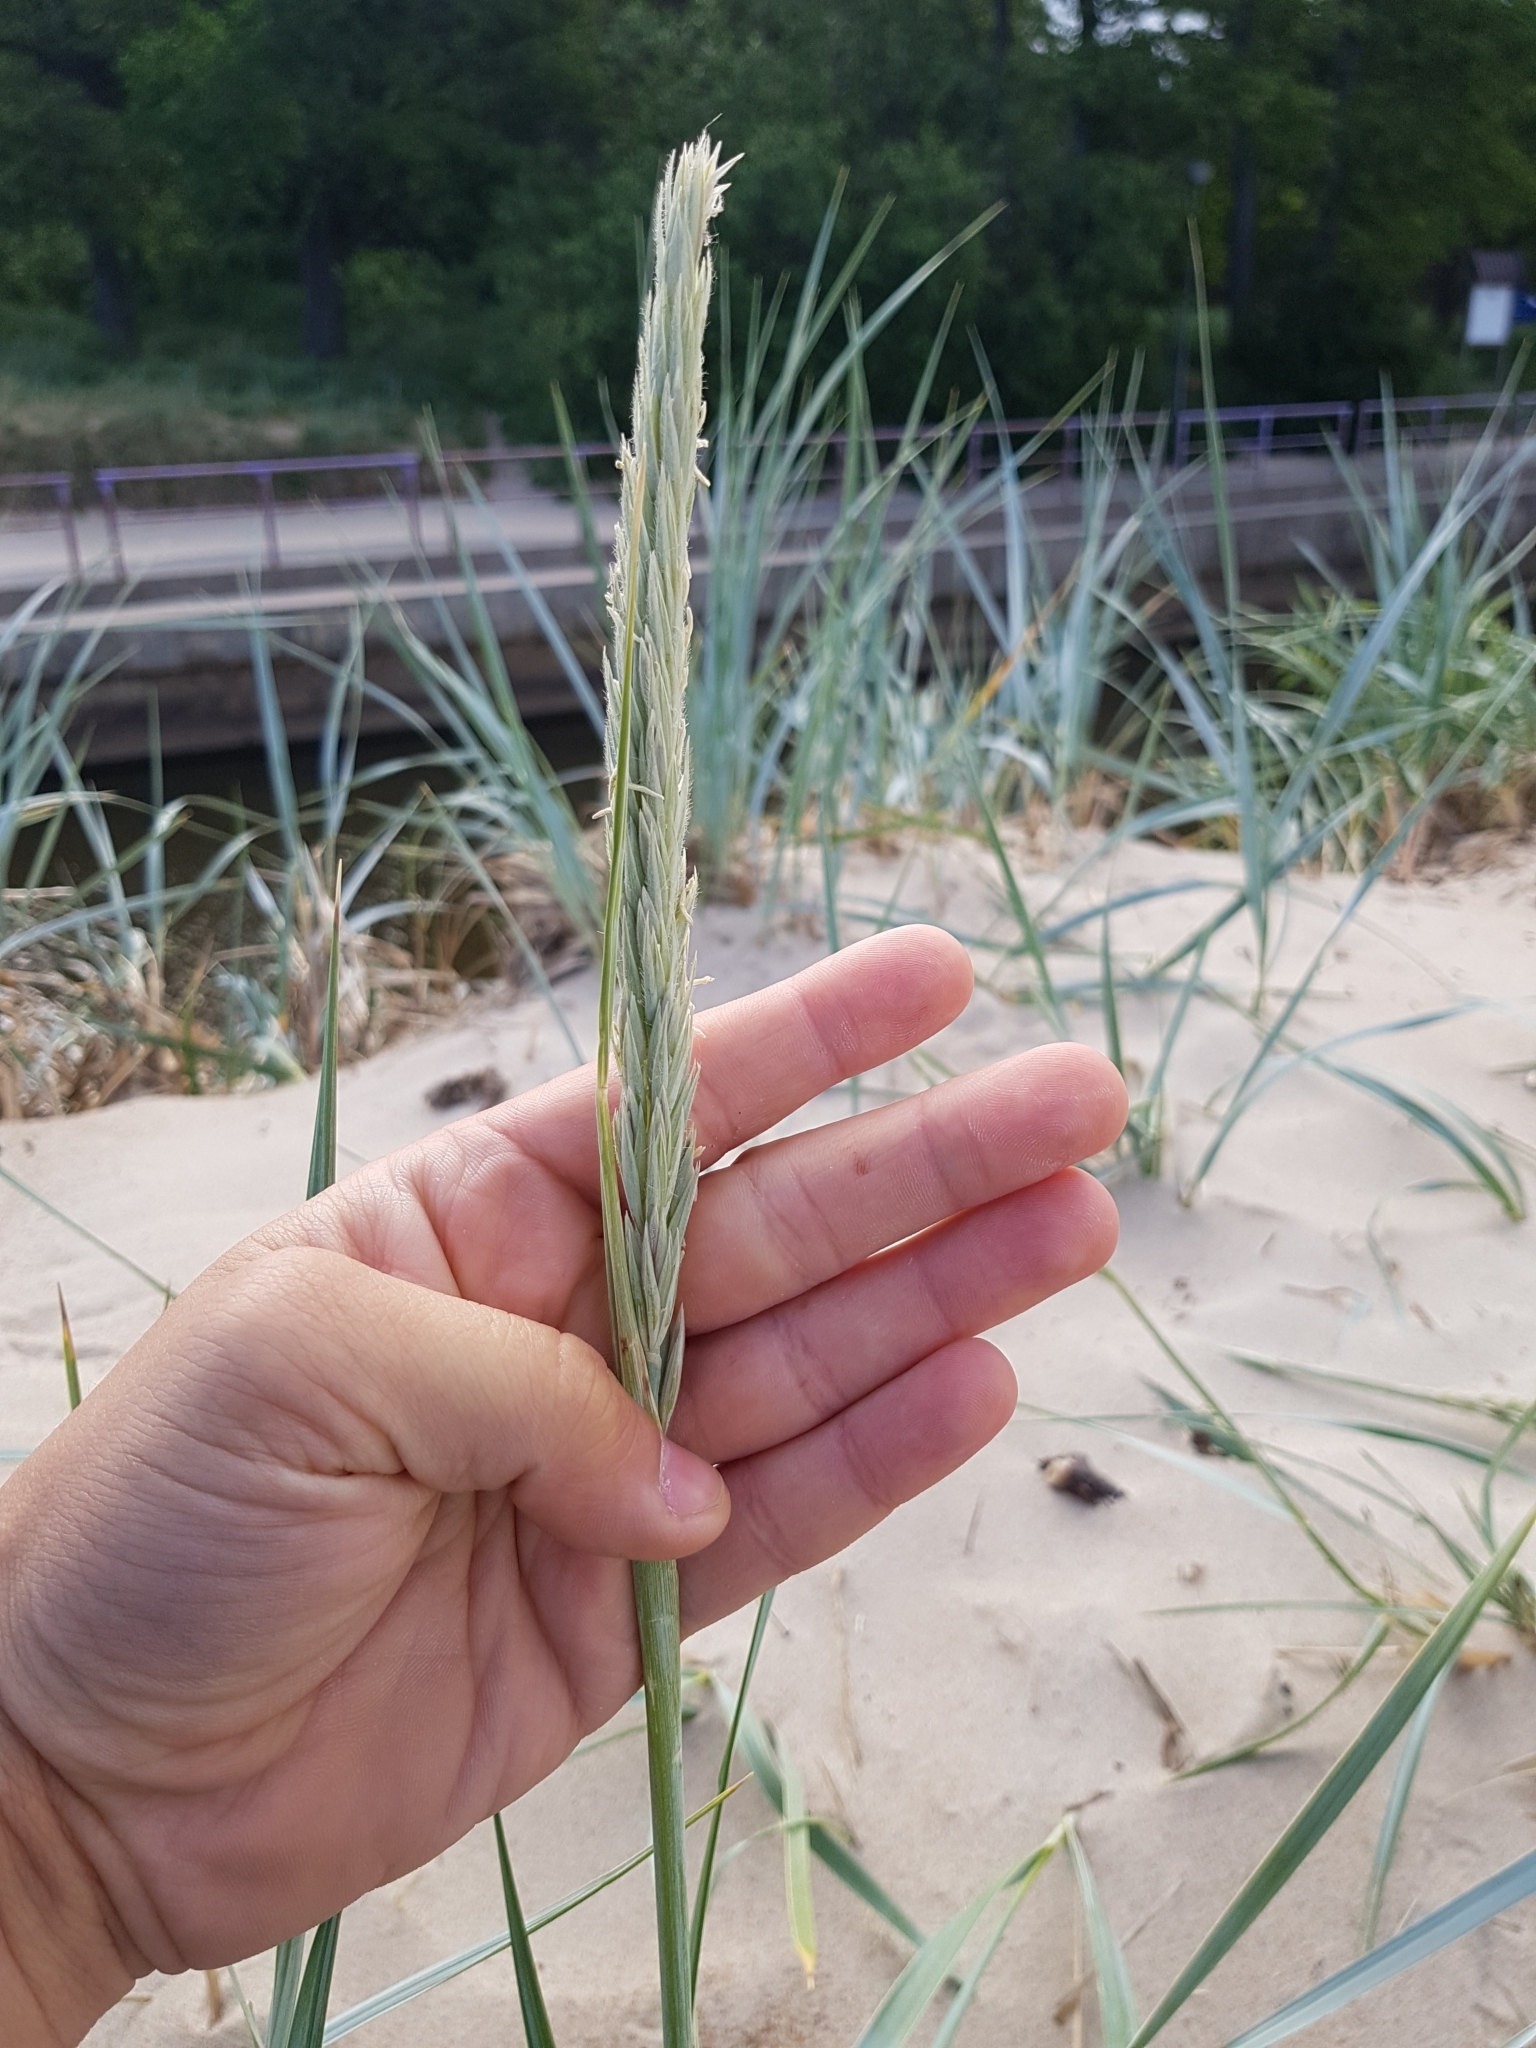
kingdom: Plantae
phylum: Tracheophyta
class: Liliopsida
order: Poales
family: Poaceae
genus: Leymus
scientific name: Leymus arenarius
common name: Lyme-grass
